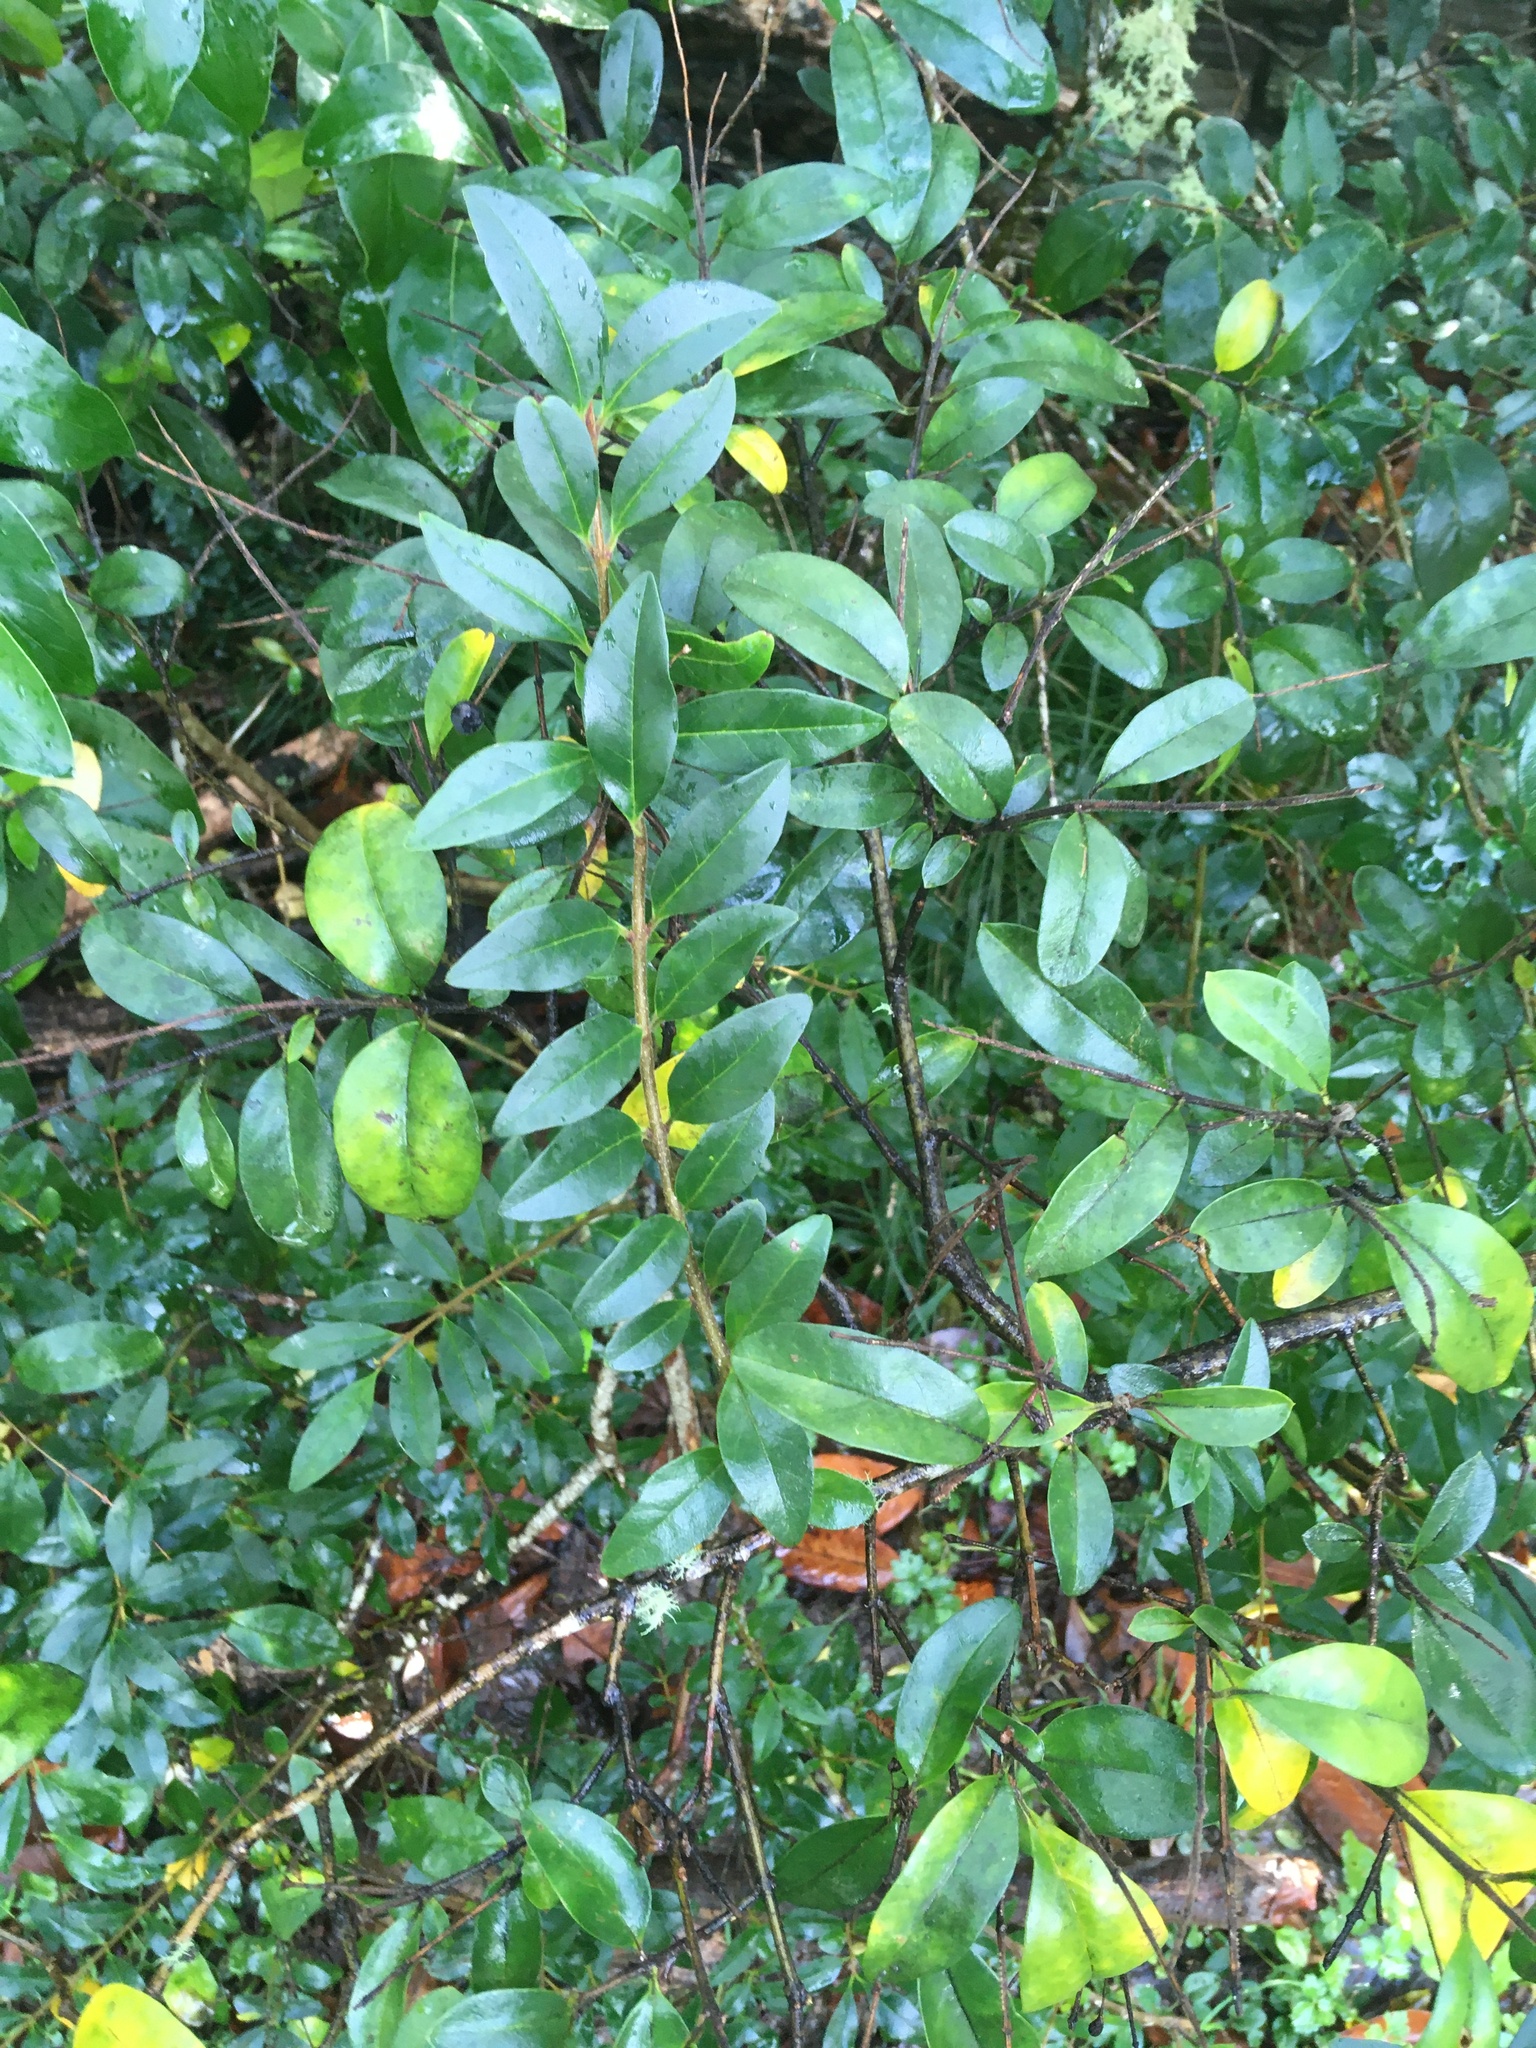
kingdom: Plantae
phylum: Tracheophyta
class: Magnoliopsida
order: Lamiales
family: Oleaceae
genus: Ligustrum
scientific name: Ligustrum lucidum
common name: Glossy privet
